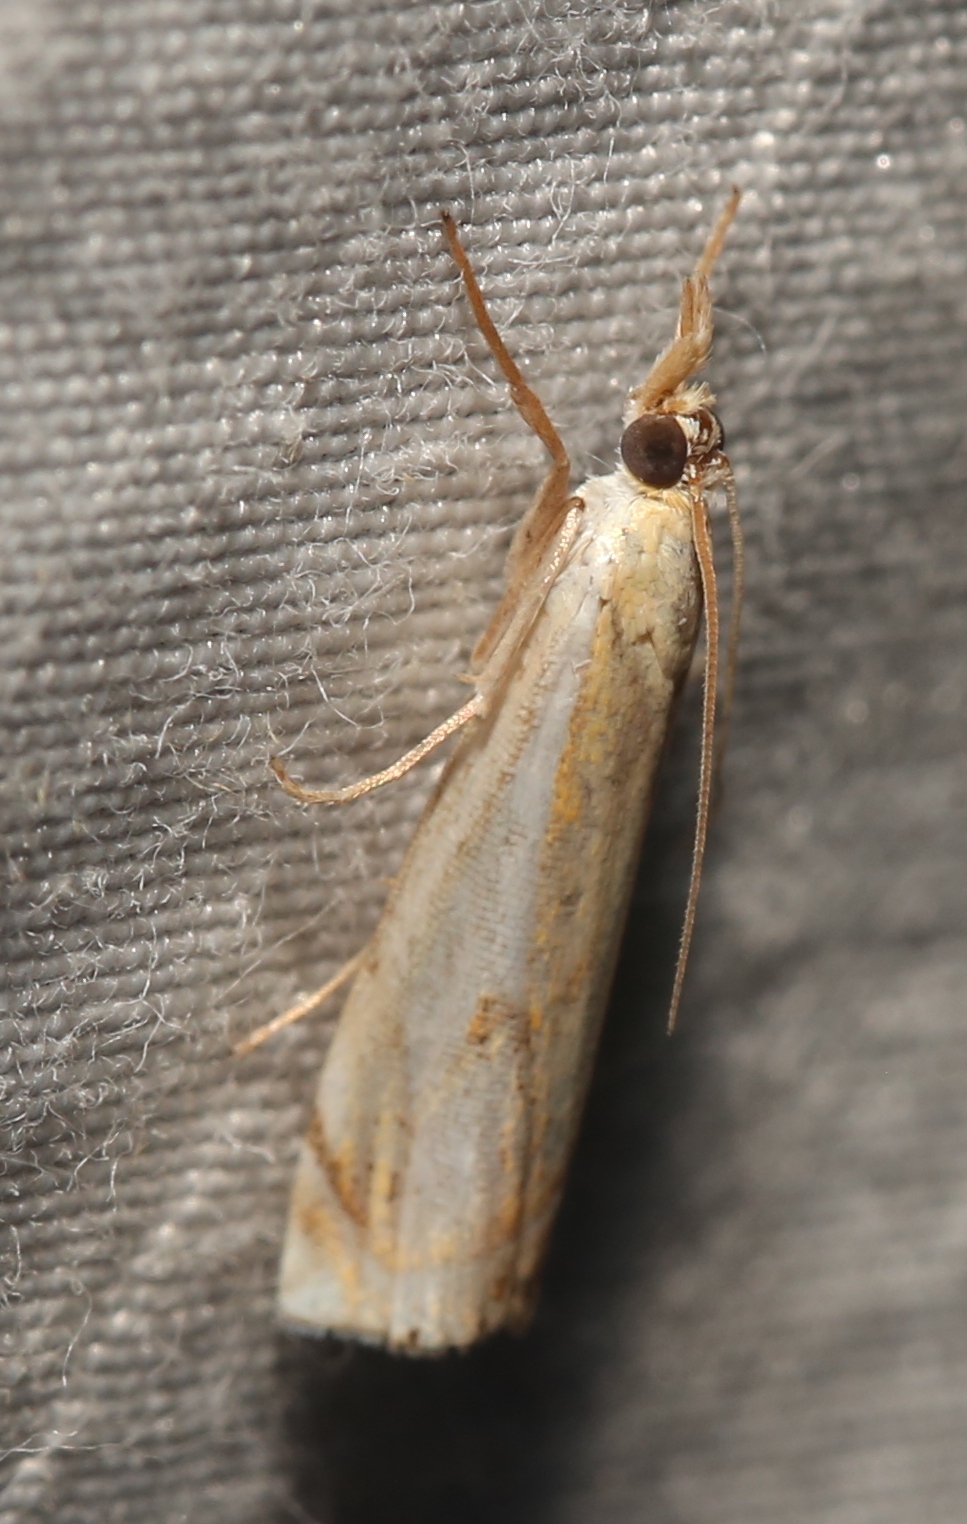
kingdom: Animalia
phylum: Arthropoda
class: Insecta
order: Lepidoptera
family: Crambidae
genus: Crambus
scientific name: Crambus agitatellus
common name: Double-banded grass-veneer
